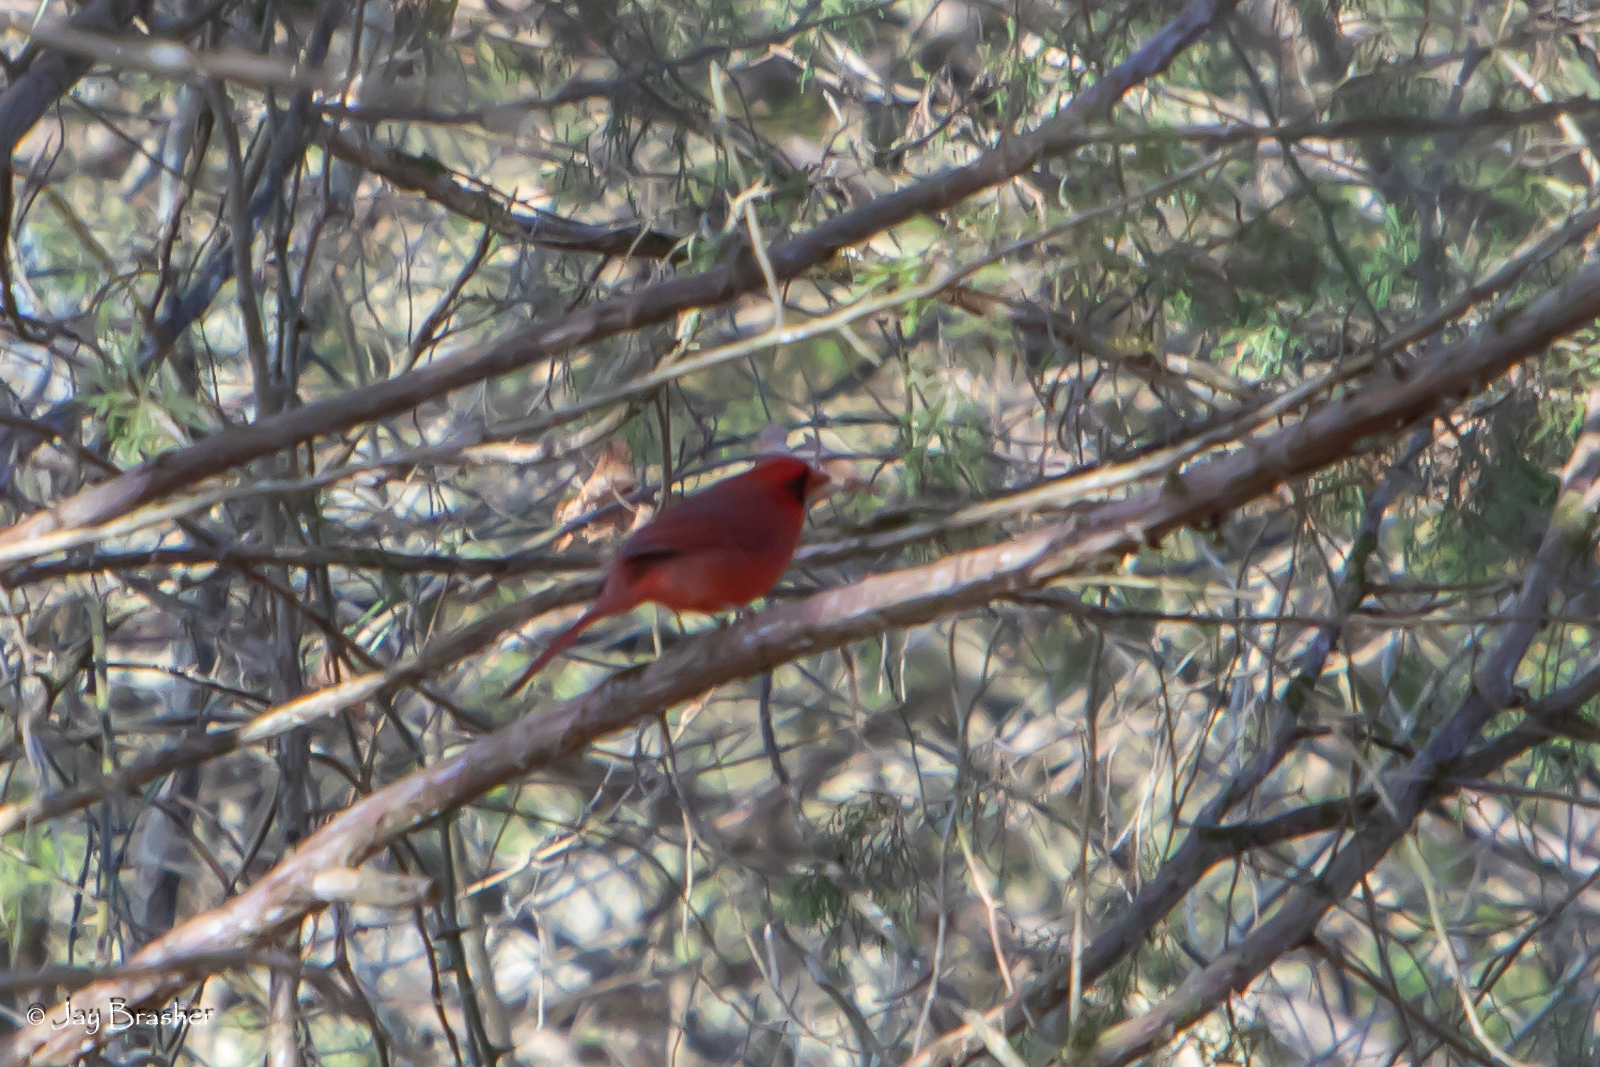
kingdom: Animalia
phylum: Chordata
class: Aves
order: Passeriformes
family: Cardinalidae
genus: Cardinalis
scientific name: Cardinalis cardinalis
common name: Northern cardinal
